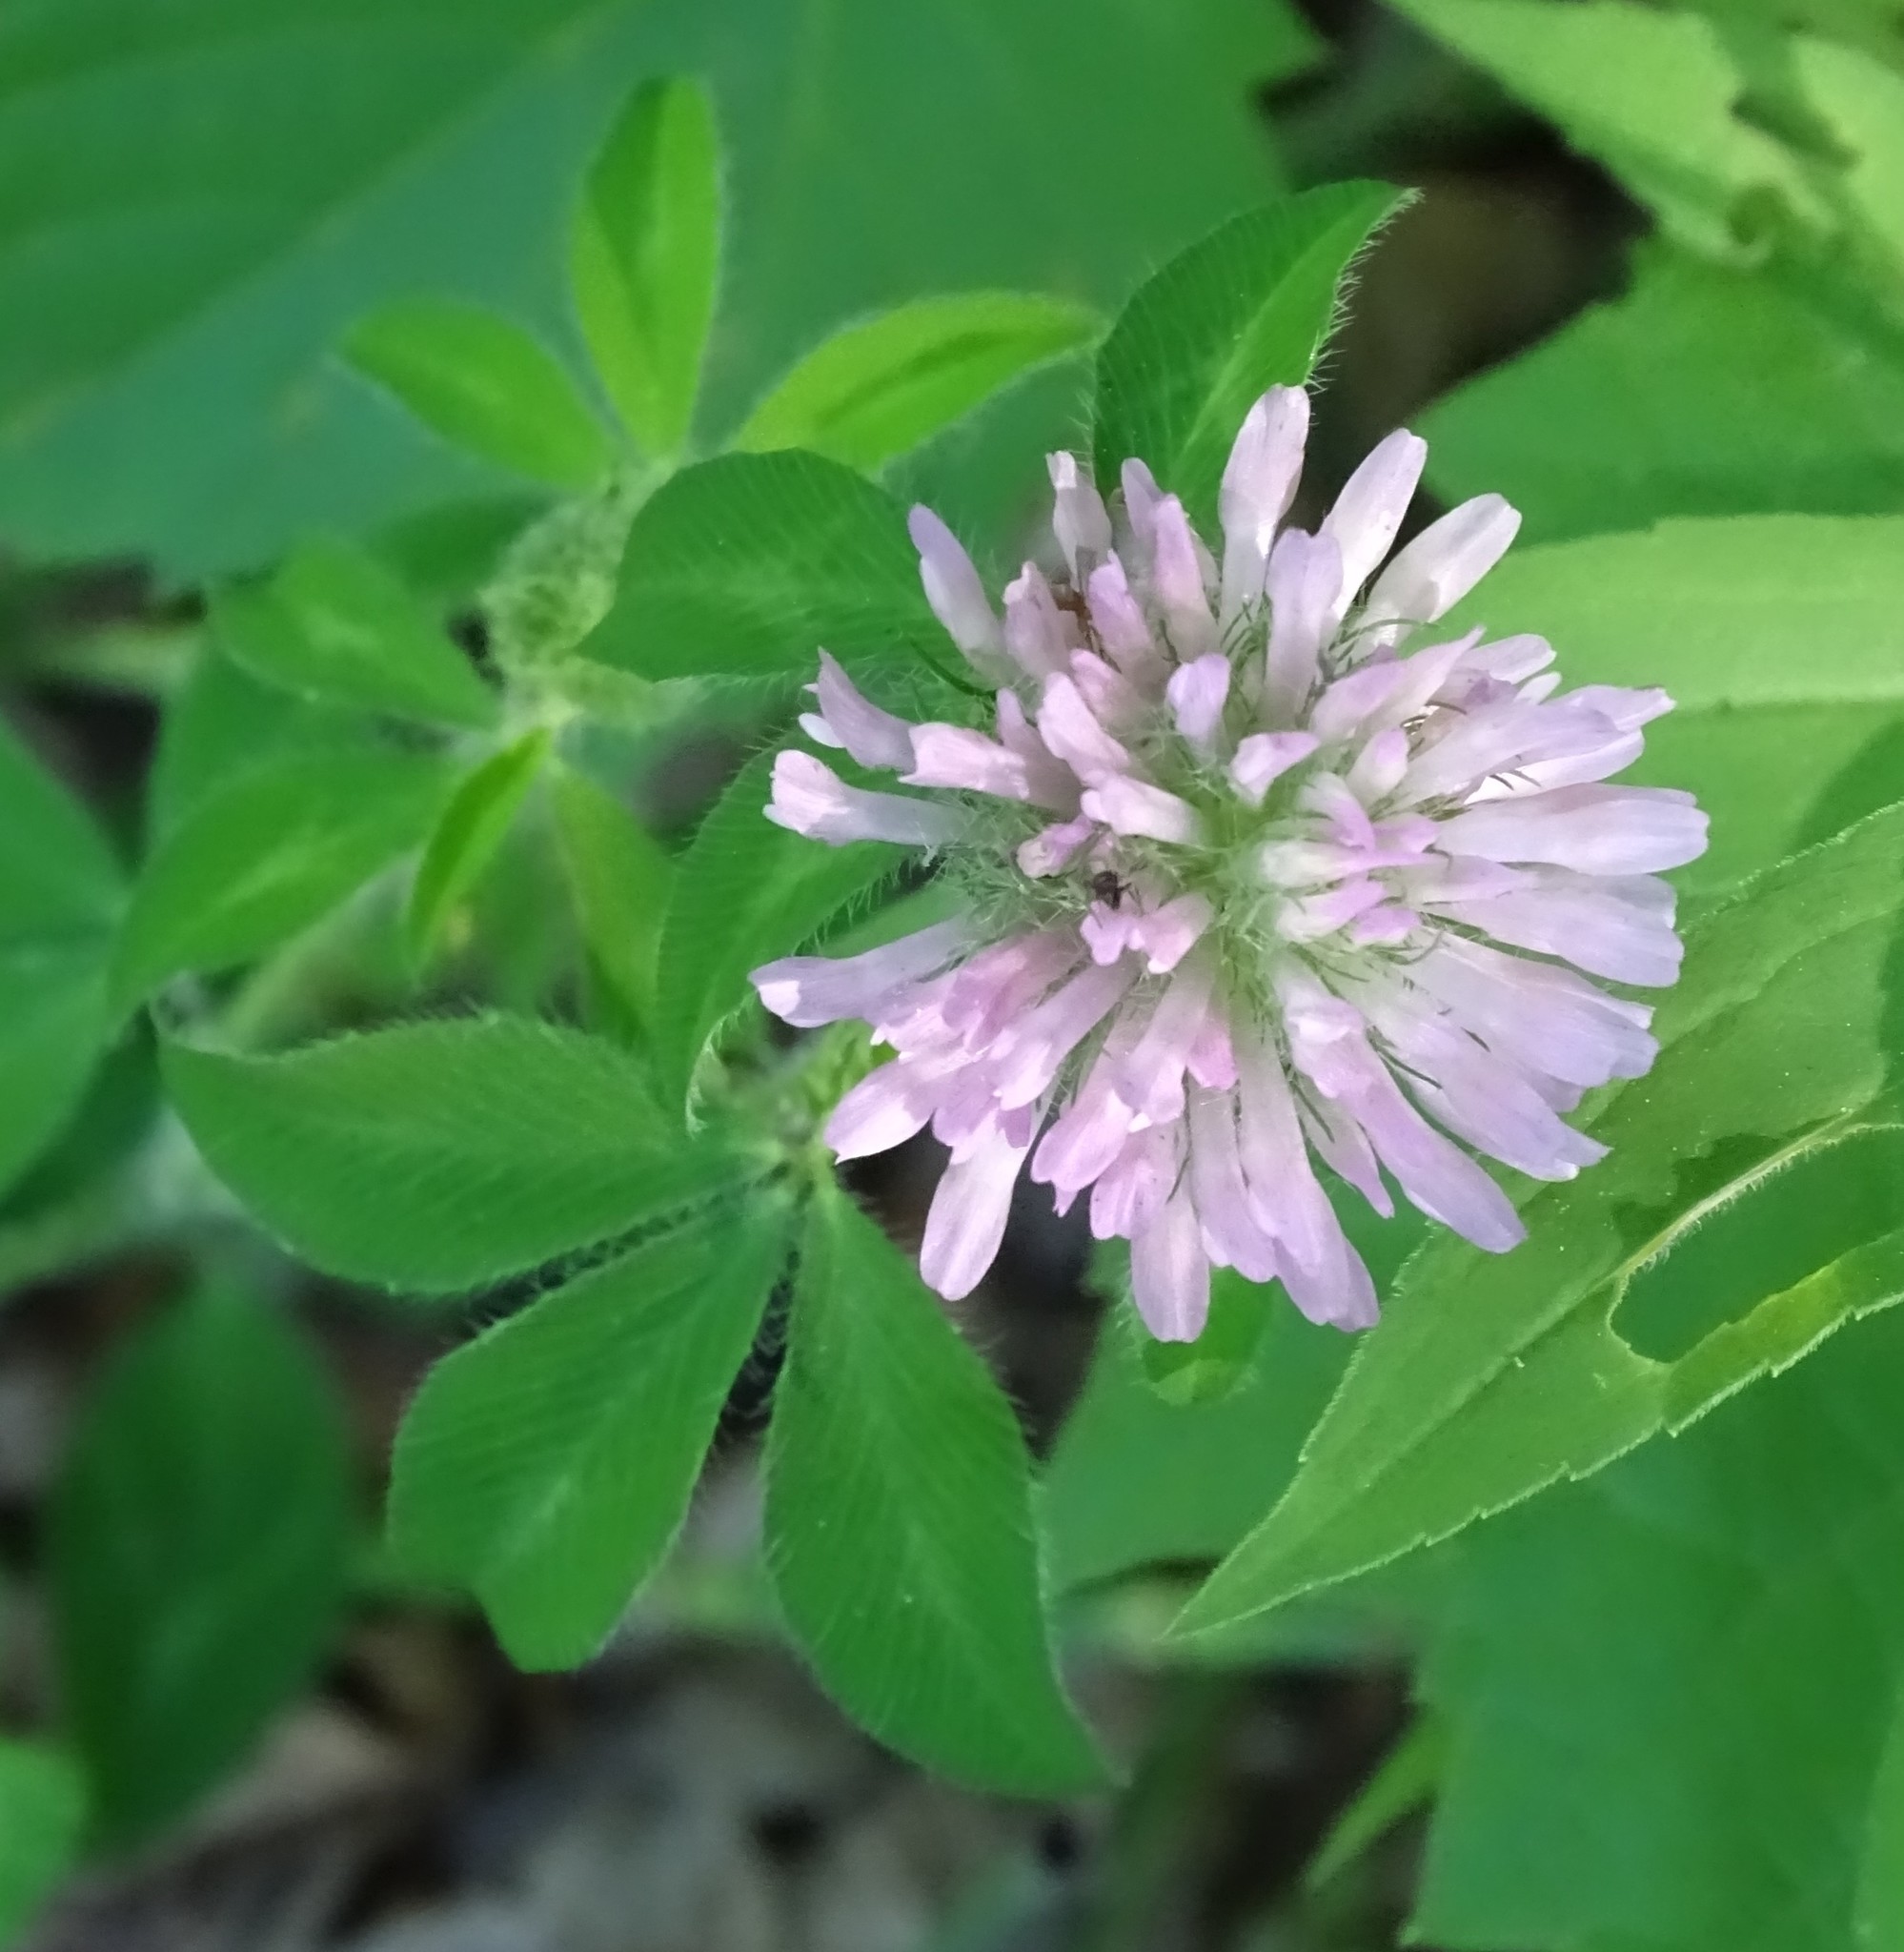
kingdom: Plantae
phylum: Tracheophyta
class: Magnoliopsida
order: Fabales
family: Fabaceae
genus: Trifolium
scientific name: Trifolium pratense
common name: Red clover
